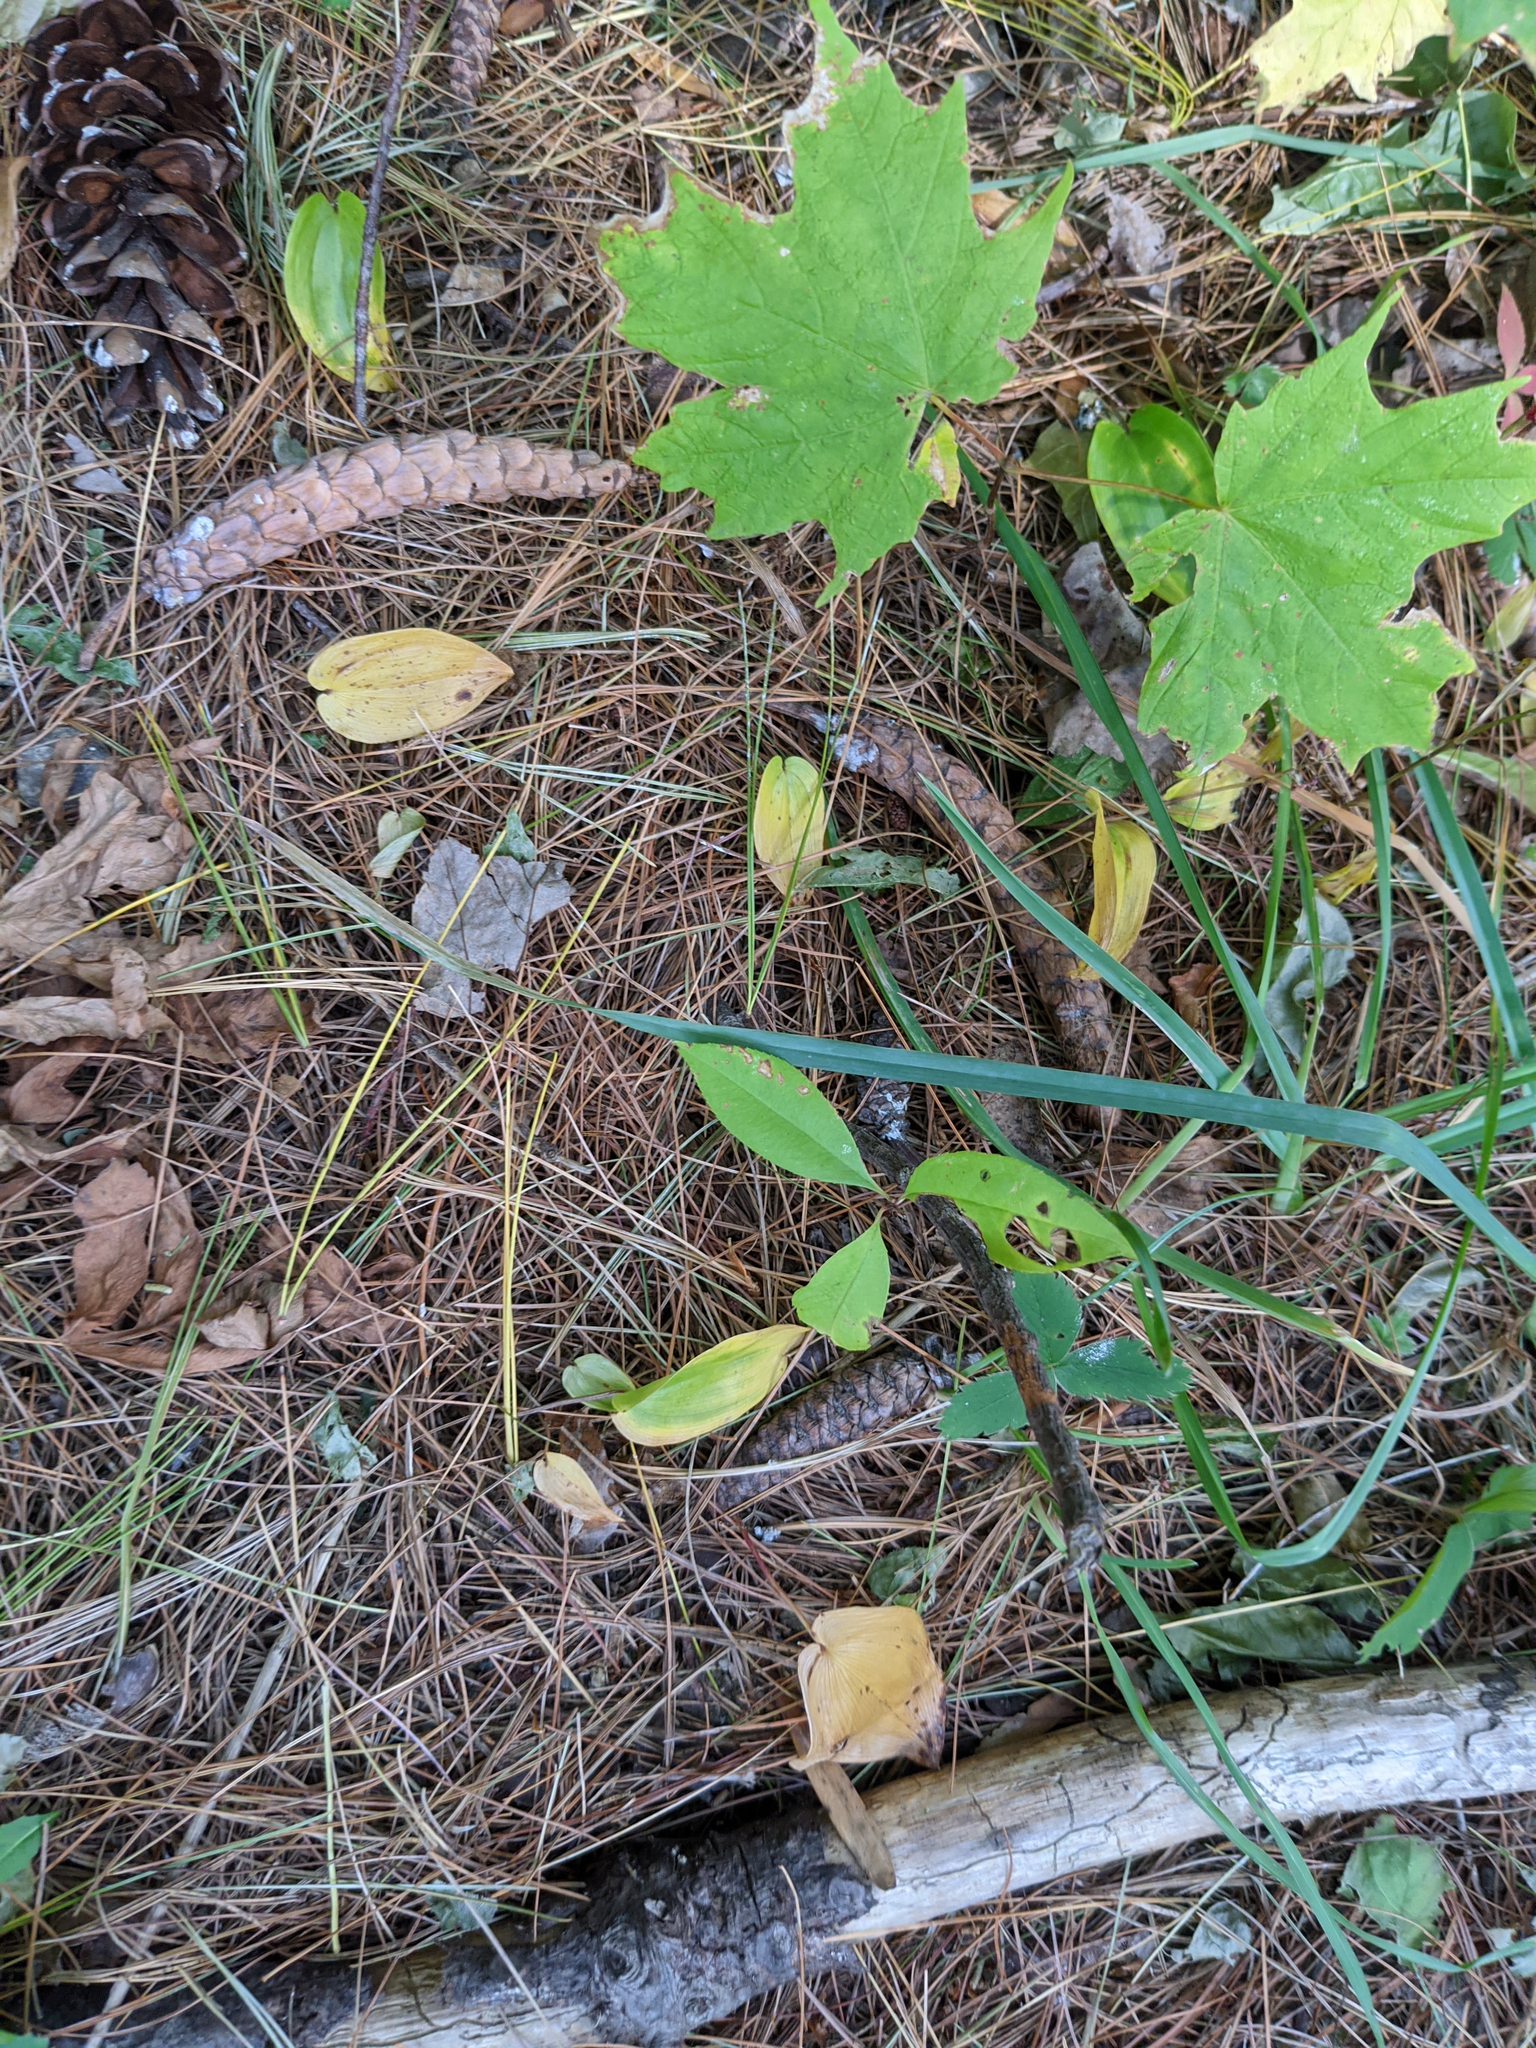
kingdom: Plantae
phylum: Tracheophyta
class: Magnoliopsida
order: Sapindales
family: Sapindaceae
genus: Acer
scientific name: Acer saccharum
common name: Sugar maple
